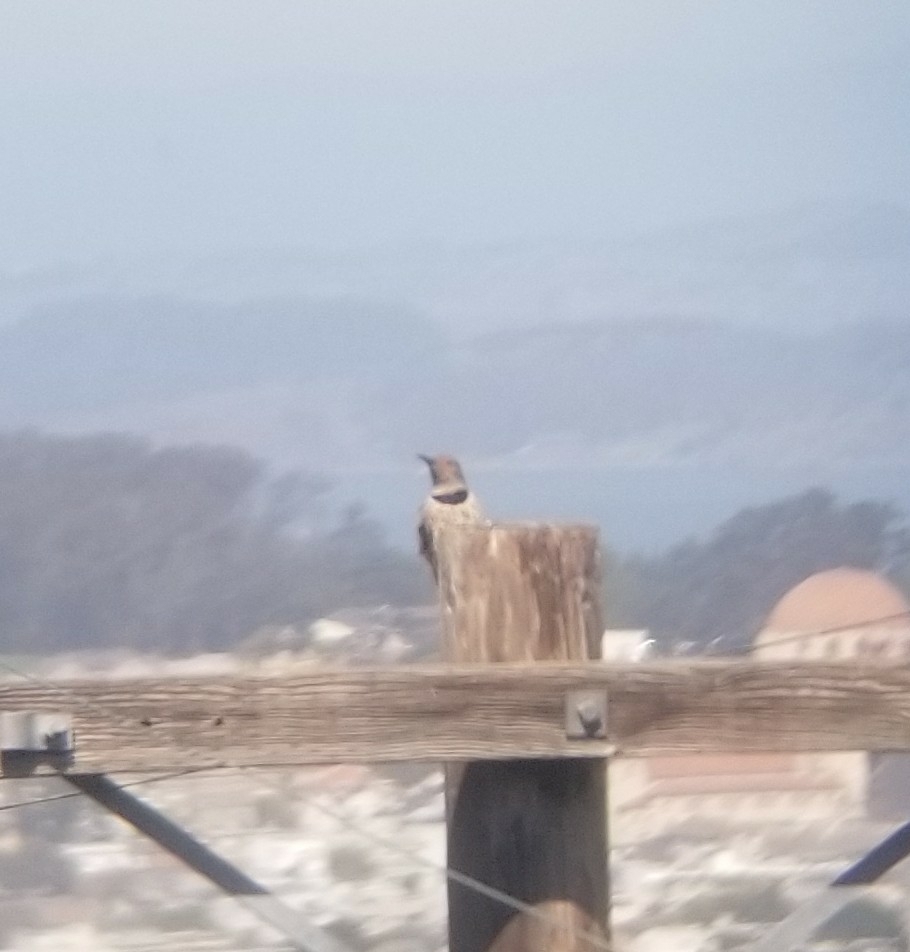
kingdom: Animalia
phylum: Chordata
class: Aves
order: Piciformes
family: Picidae
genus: Colaptes
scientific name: Colaptes auratus
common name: Northern flicker
